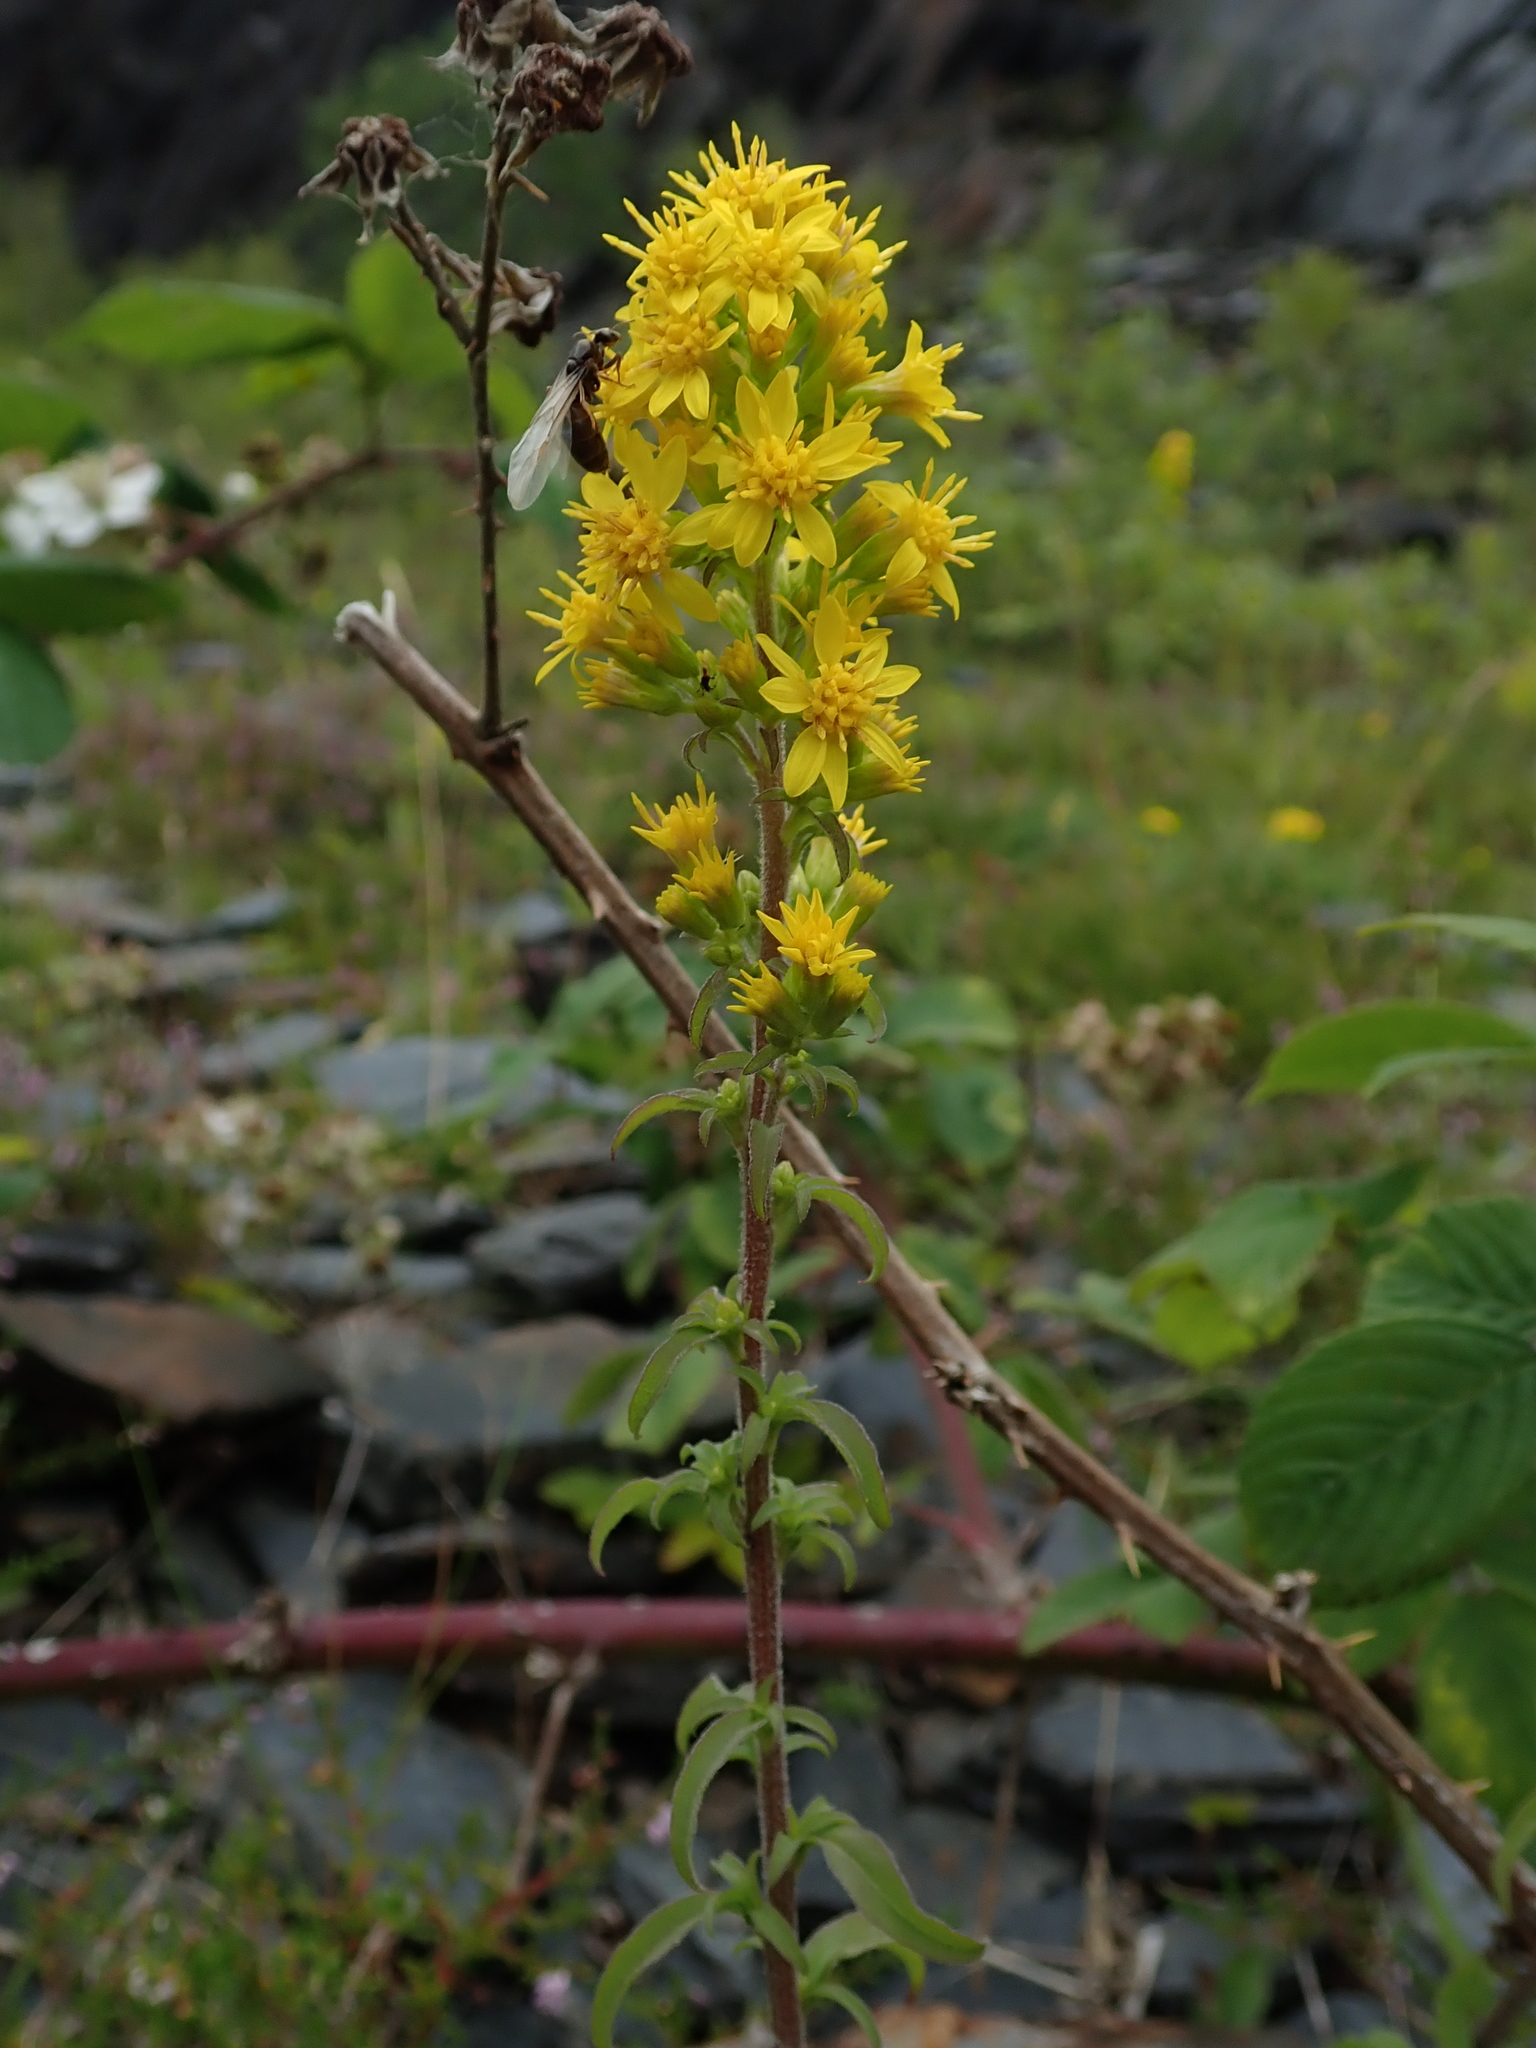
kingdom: Plantae
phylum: Tracheophyta
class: Magnoliopsida
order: Asterales
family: Asteraceae
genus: Solidago
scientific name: Solidago virgaurea
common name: Goldenrod
